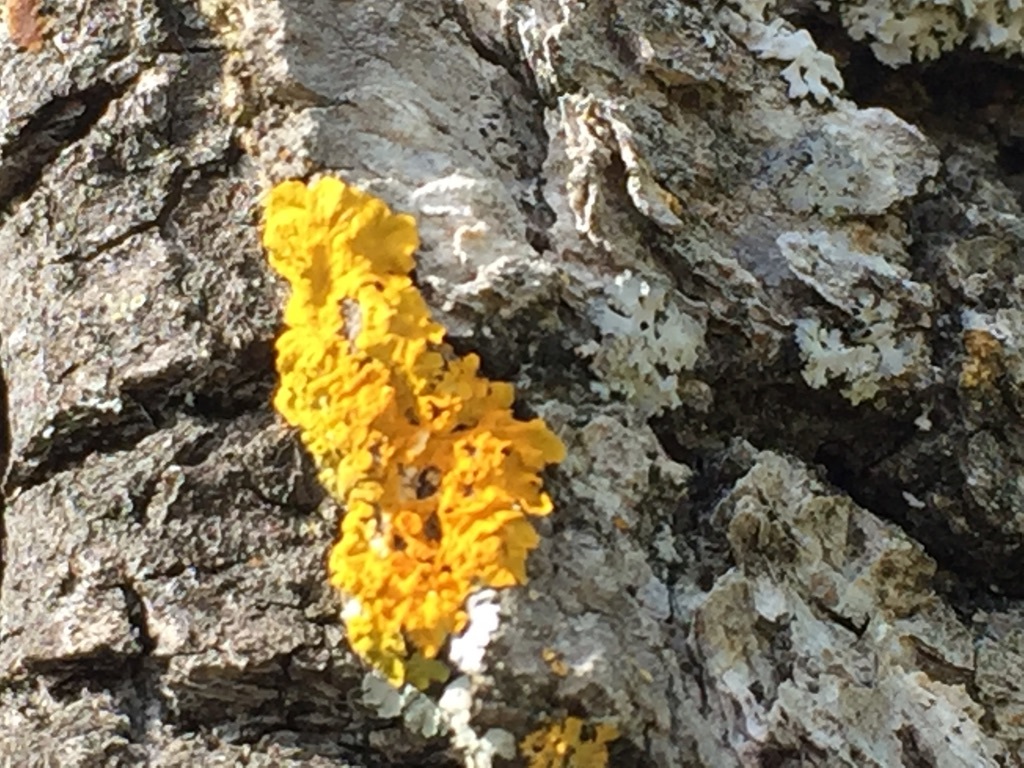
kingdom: Fungi
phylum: Ascomycota
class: Lecanoromycetes
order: Teloschistales
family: Teloschistaceae
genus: Xanthoria
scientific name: Xanthoria parietina
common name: Common orange lichen
